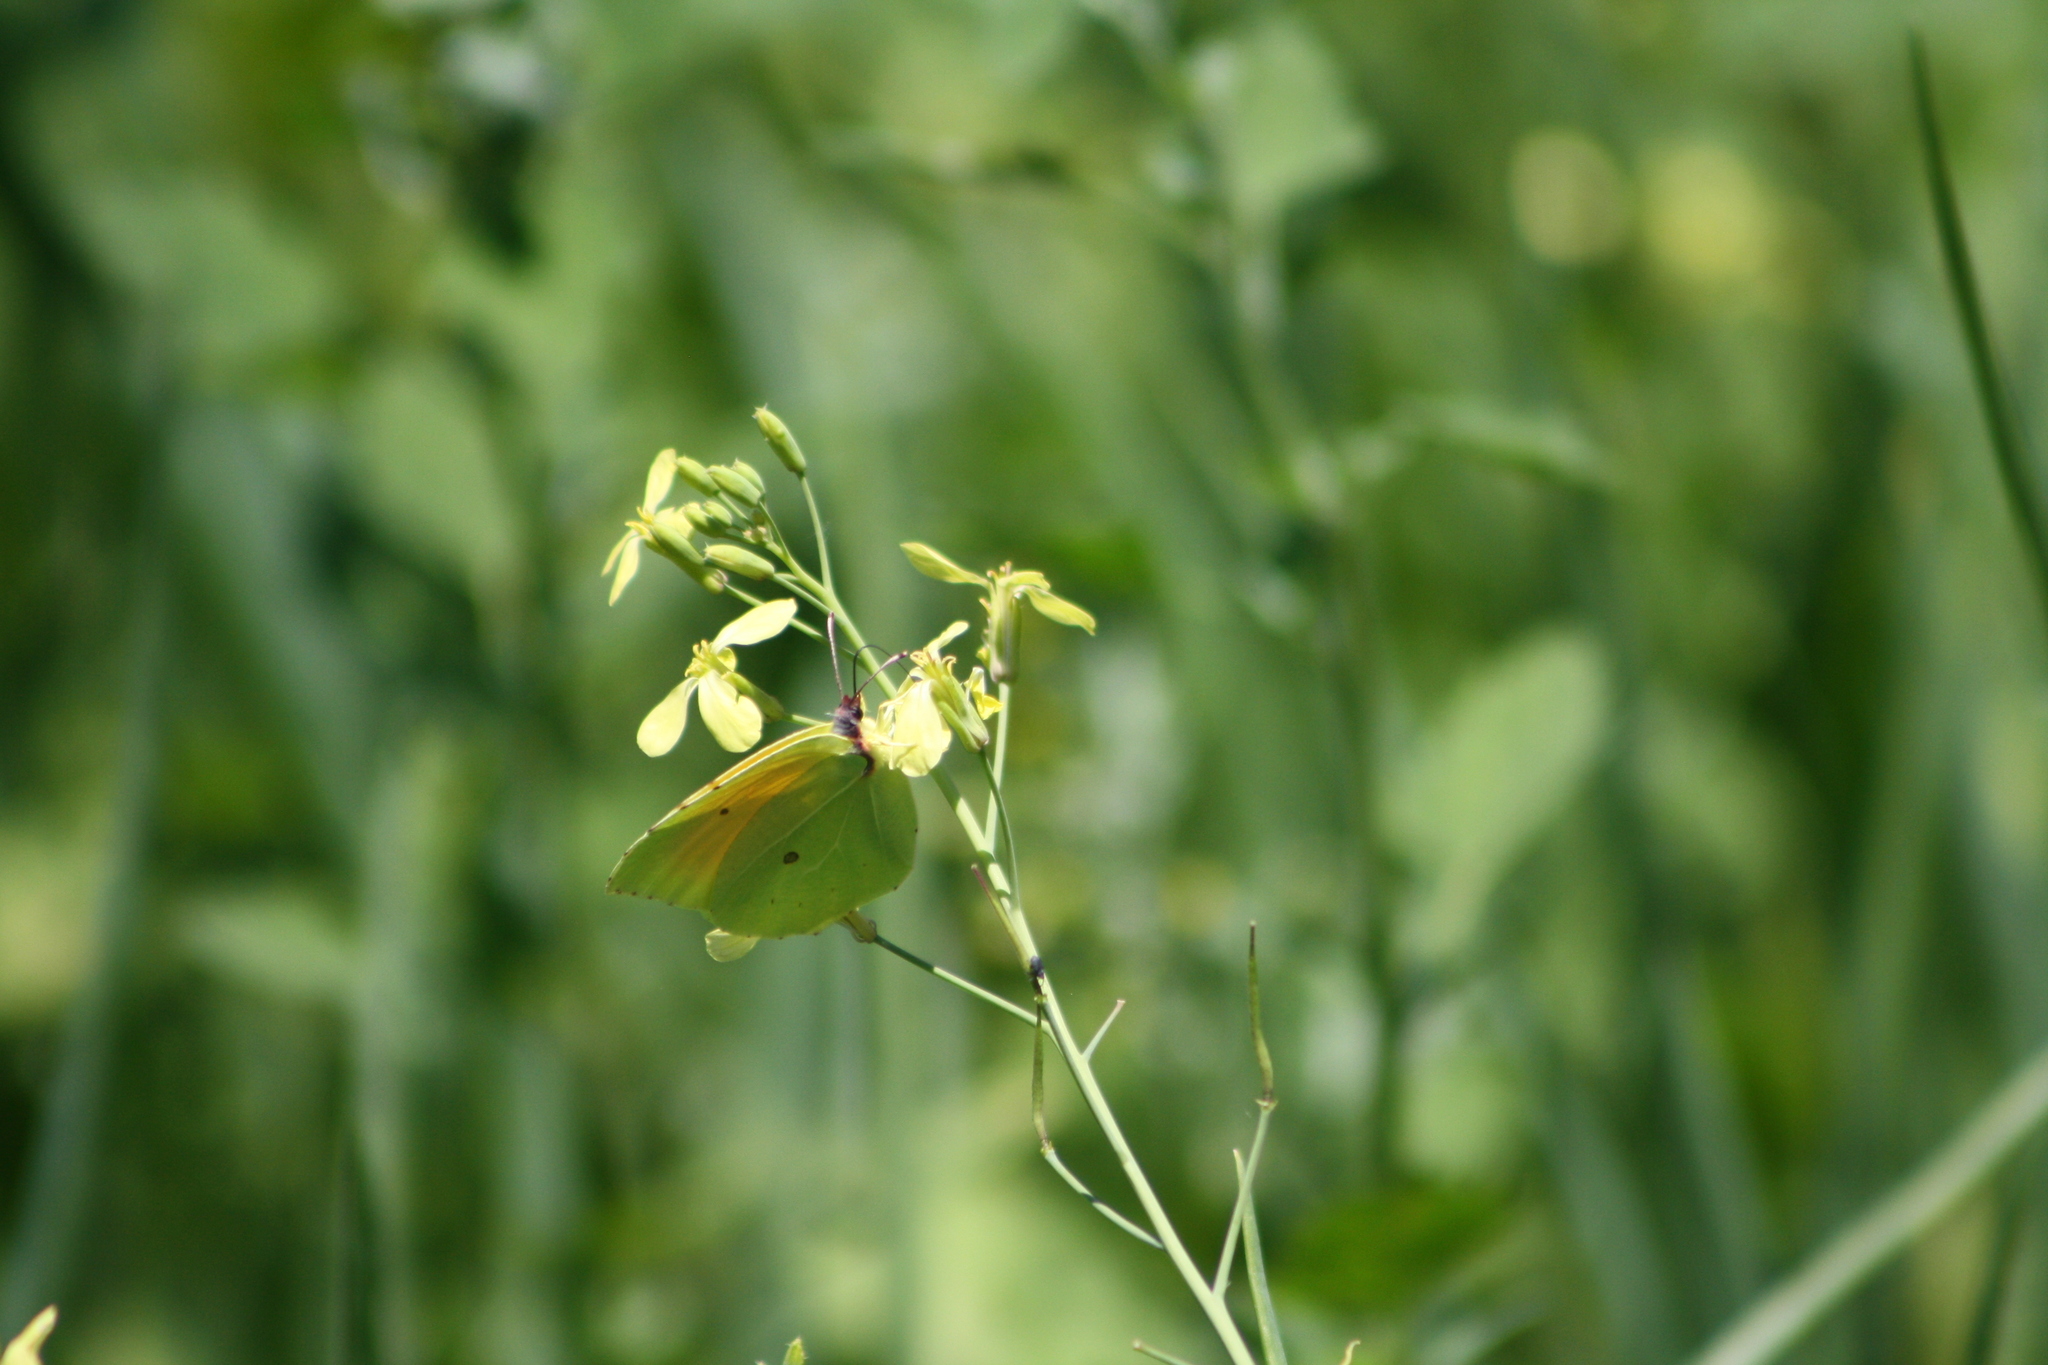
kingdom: Animalia
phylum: Arthropoda
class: Insecta
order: Lepidoptera
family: Pieridae
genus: Gonepteryx
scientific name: Gonepteryx cleopatra
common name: Cleopatra
